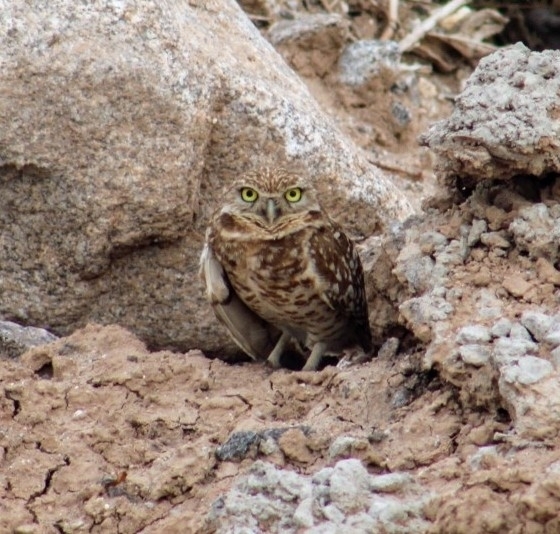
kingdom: Animalia
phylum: Chordata
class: Aves
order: Strigiformes
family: Strigidae
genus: Athene
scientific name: Athene cunicularia
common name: Burrowing owl
